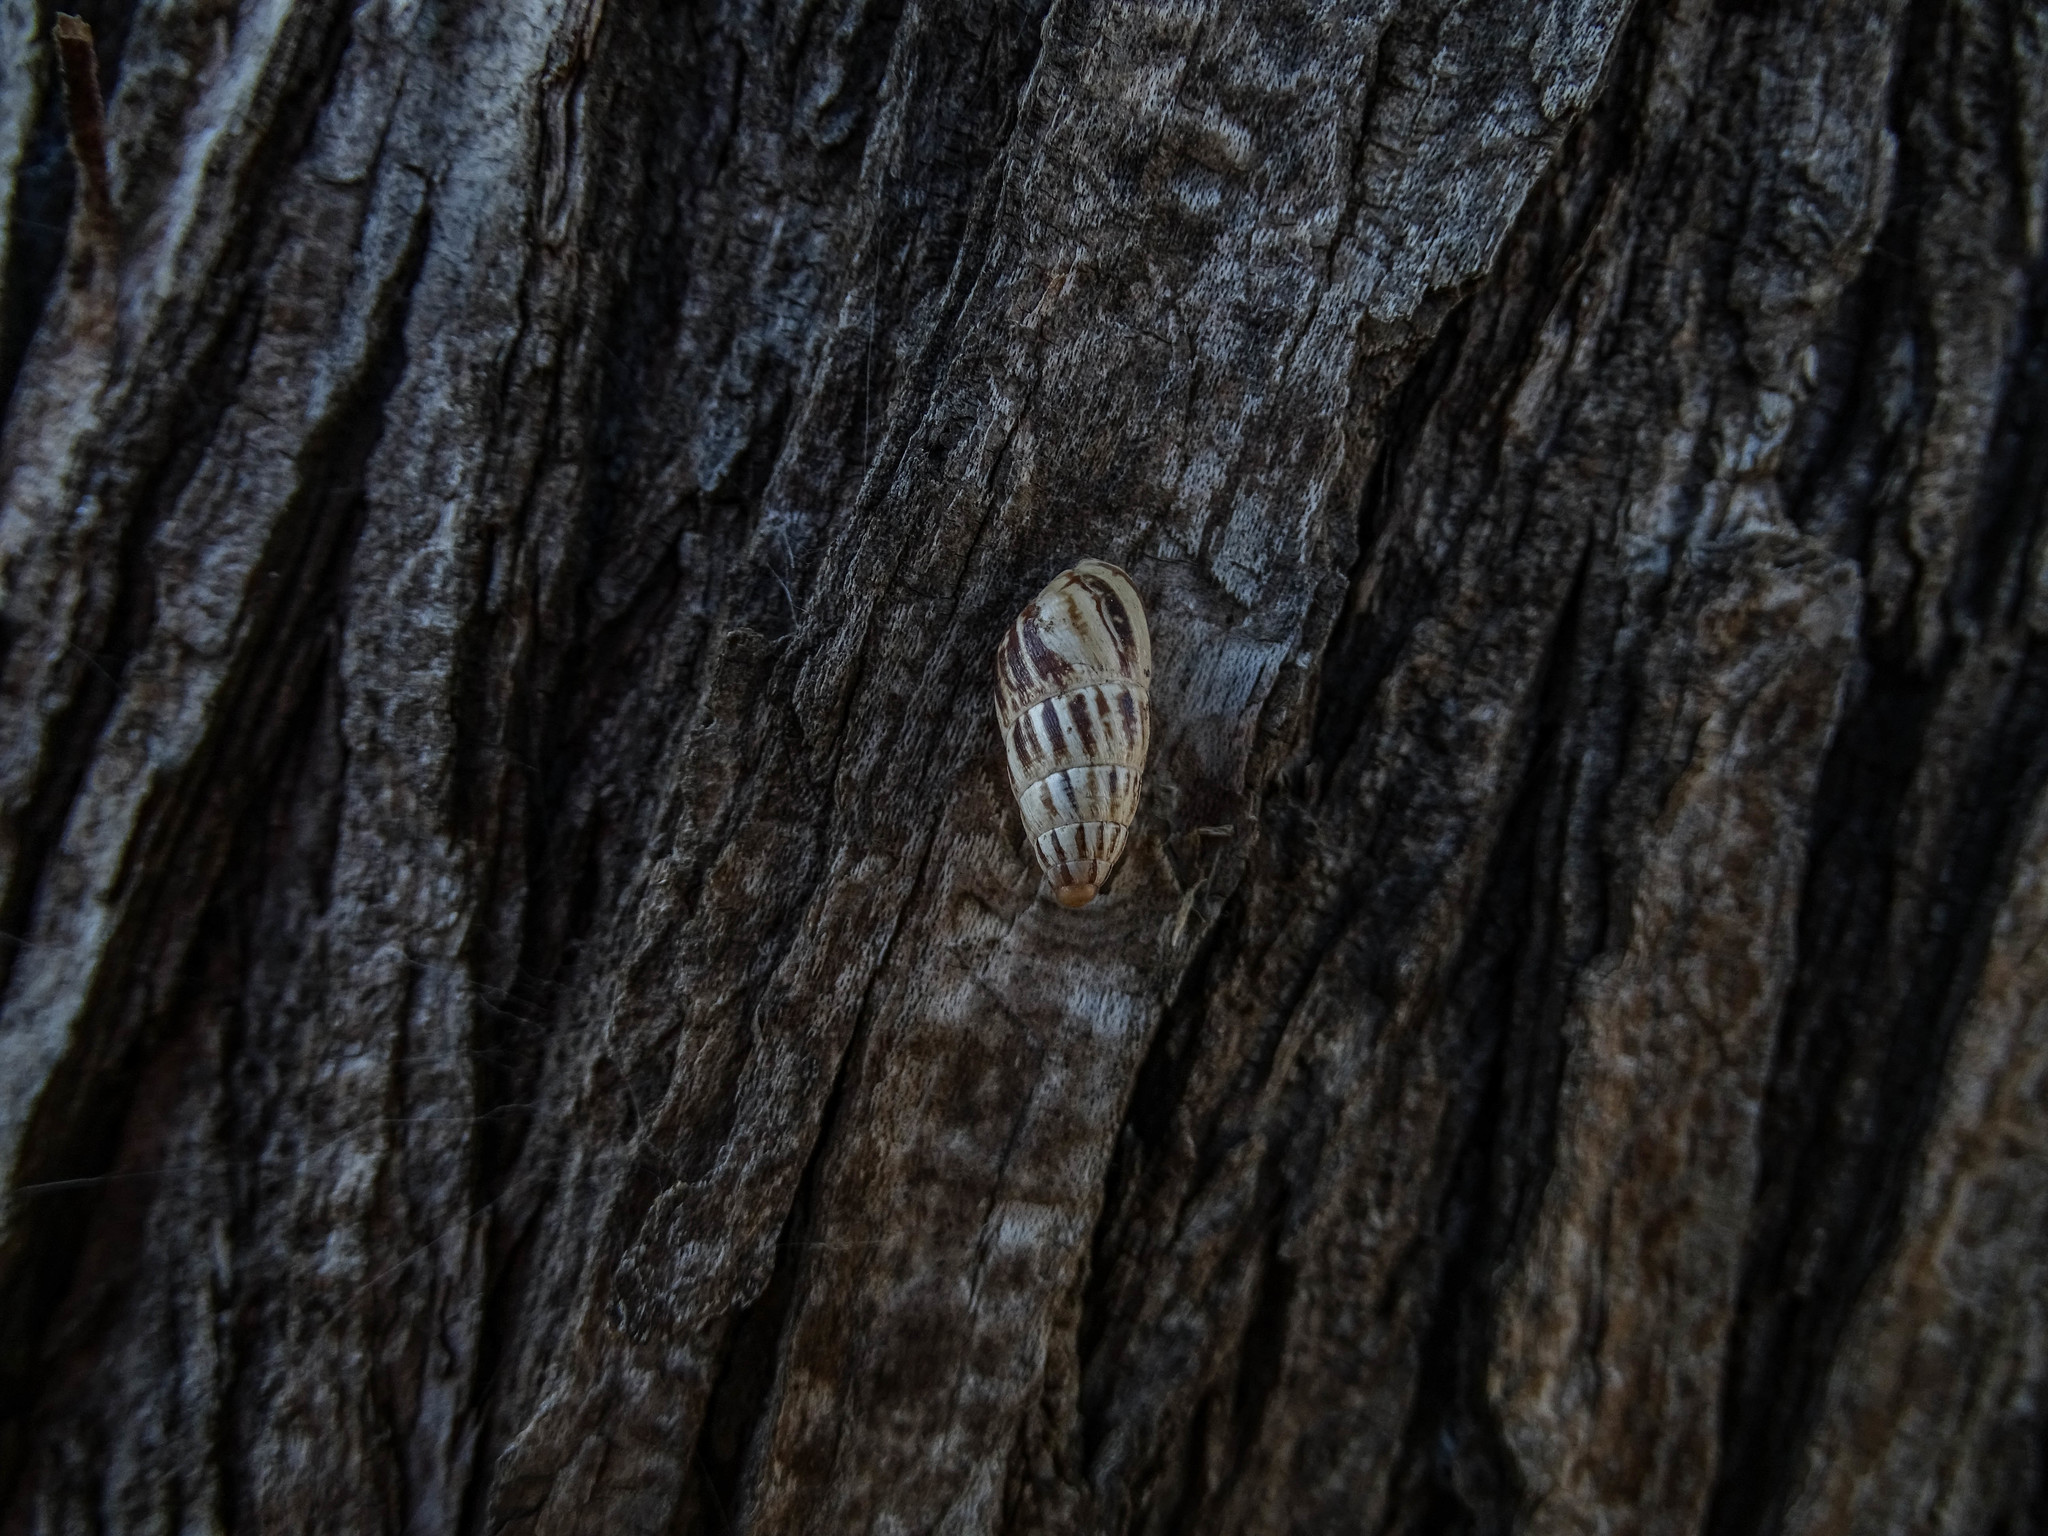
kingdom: Animalia
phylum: Mollusca
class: Gastropoda
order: Stylommatophora
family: Enidae
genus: Zebrina
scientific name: Zebrina fasciolata
